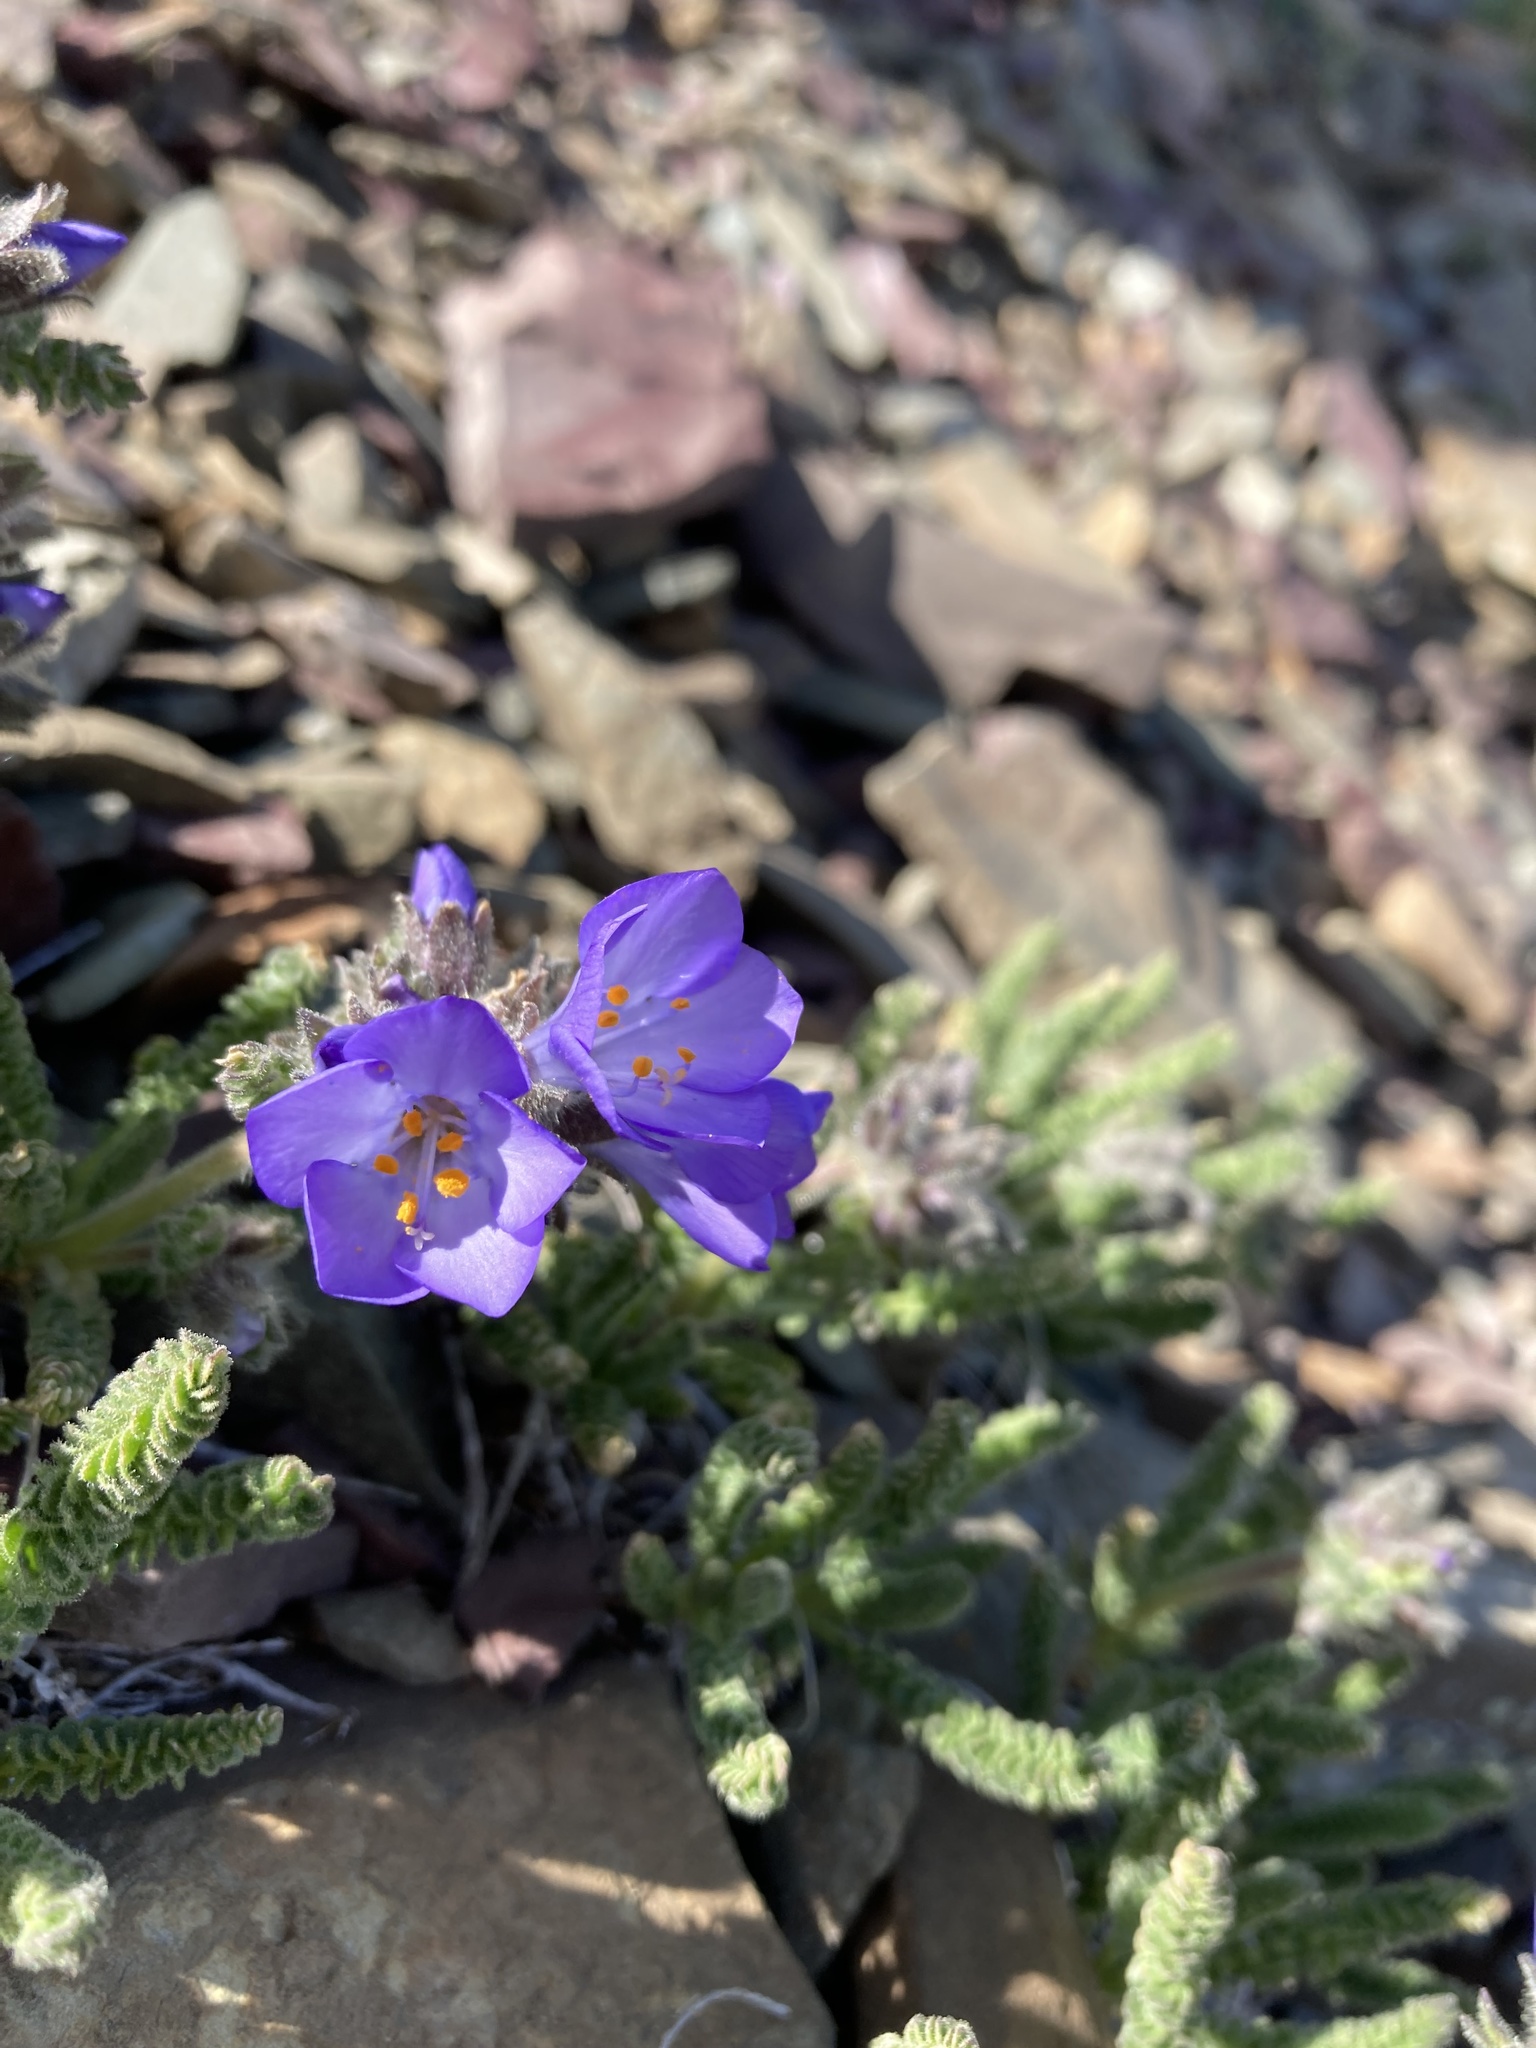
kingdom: Plantae
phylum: Tracheophyta
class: Magnoliopsida
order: Ericales
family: Polemoniaceae
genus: Polemonium
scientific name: Polemonium viscosum
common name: Skunk jacob's-ladder
